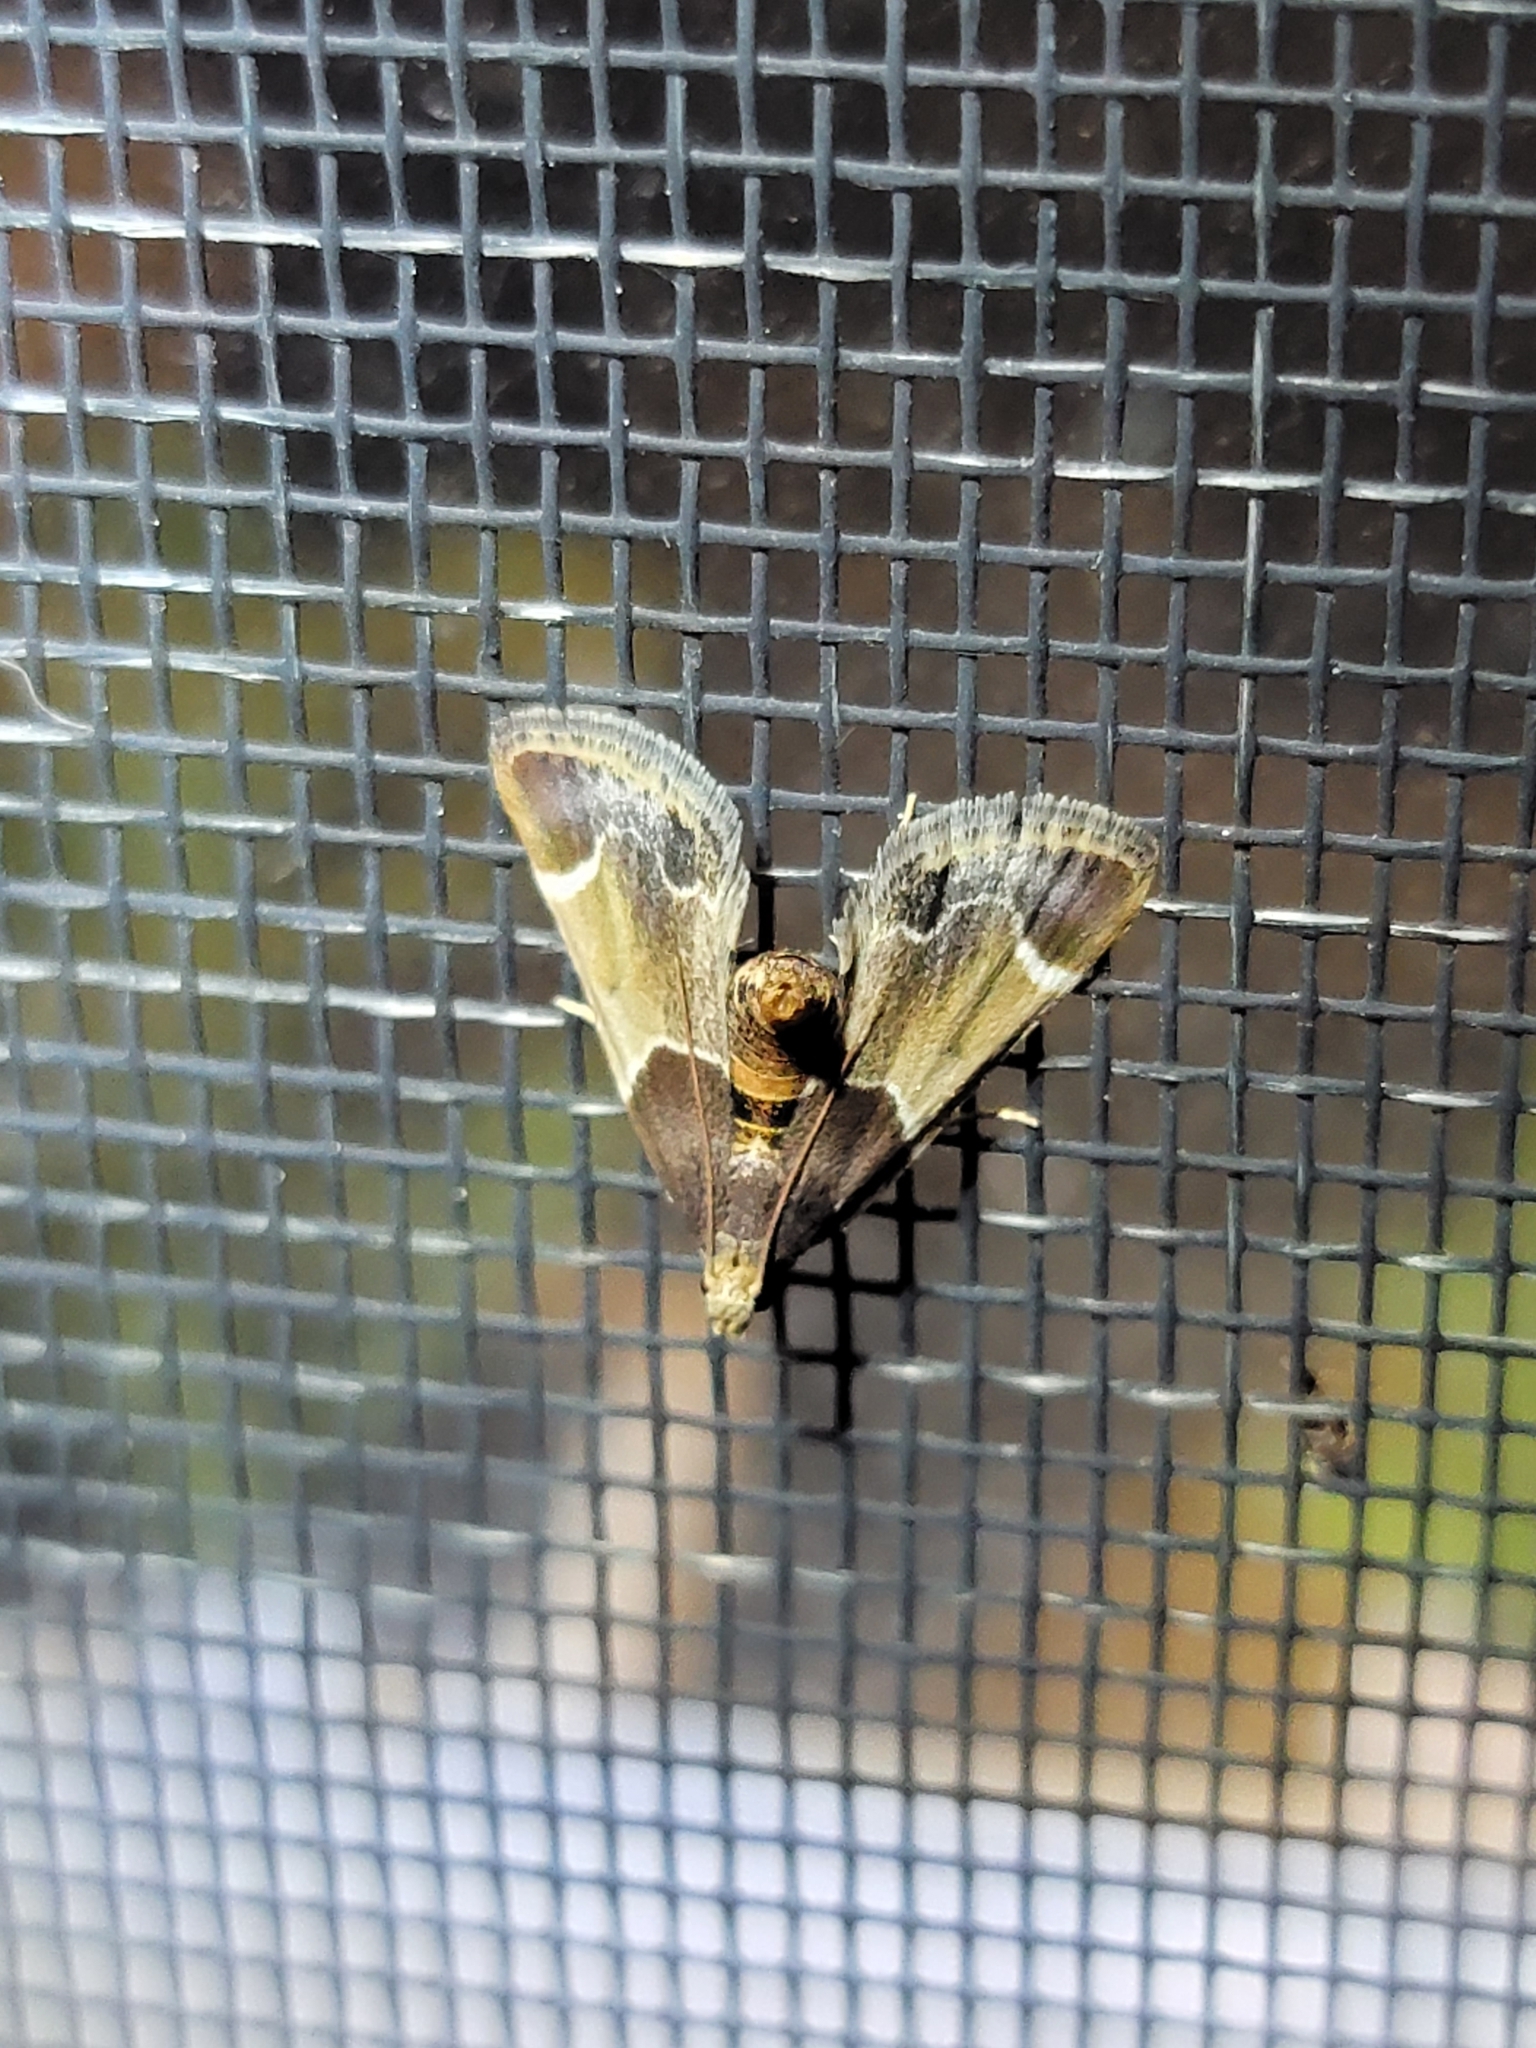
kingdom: Animalia
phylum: Arthropoda
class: Insecta
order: Lepidoptera
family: Pyralidae
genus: Pyralis
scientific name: Pyralis farinalis
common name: Meal moth
